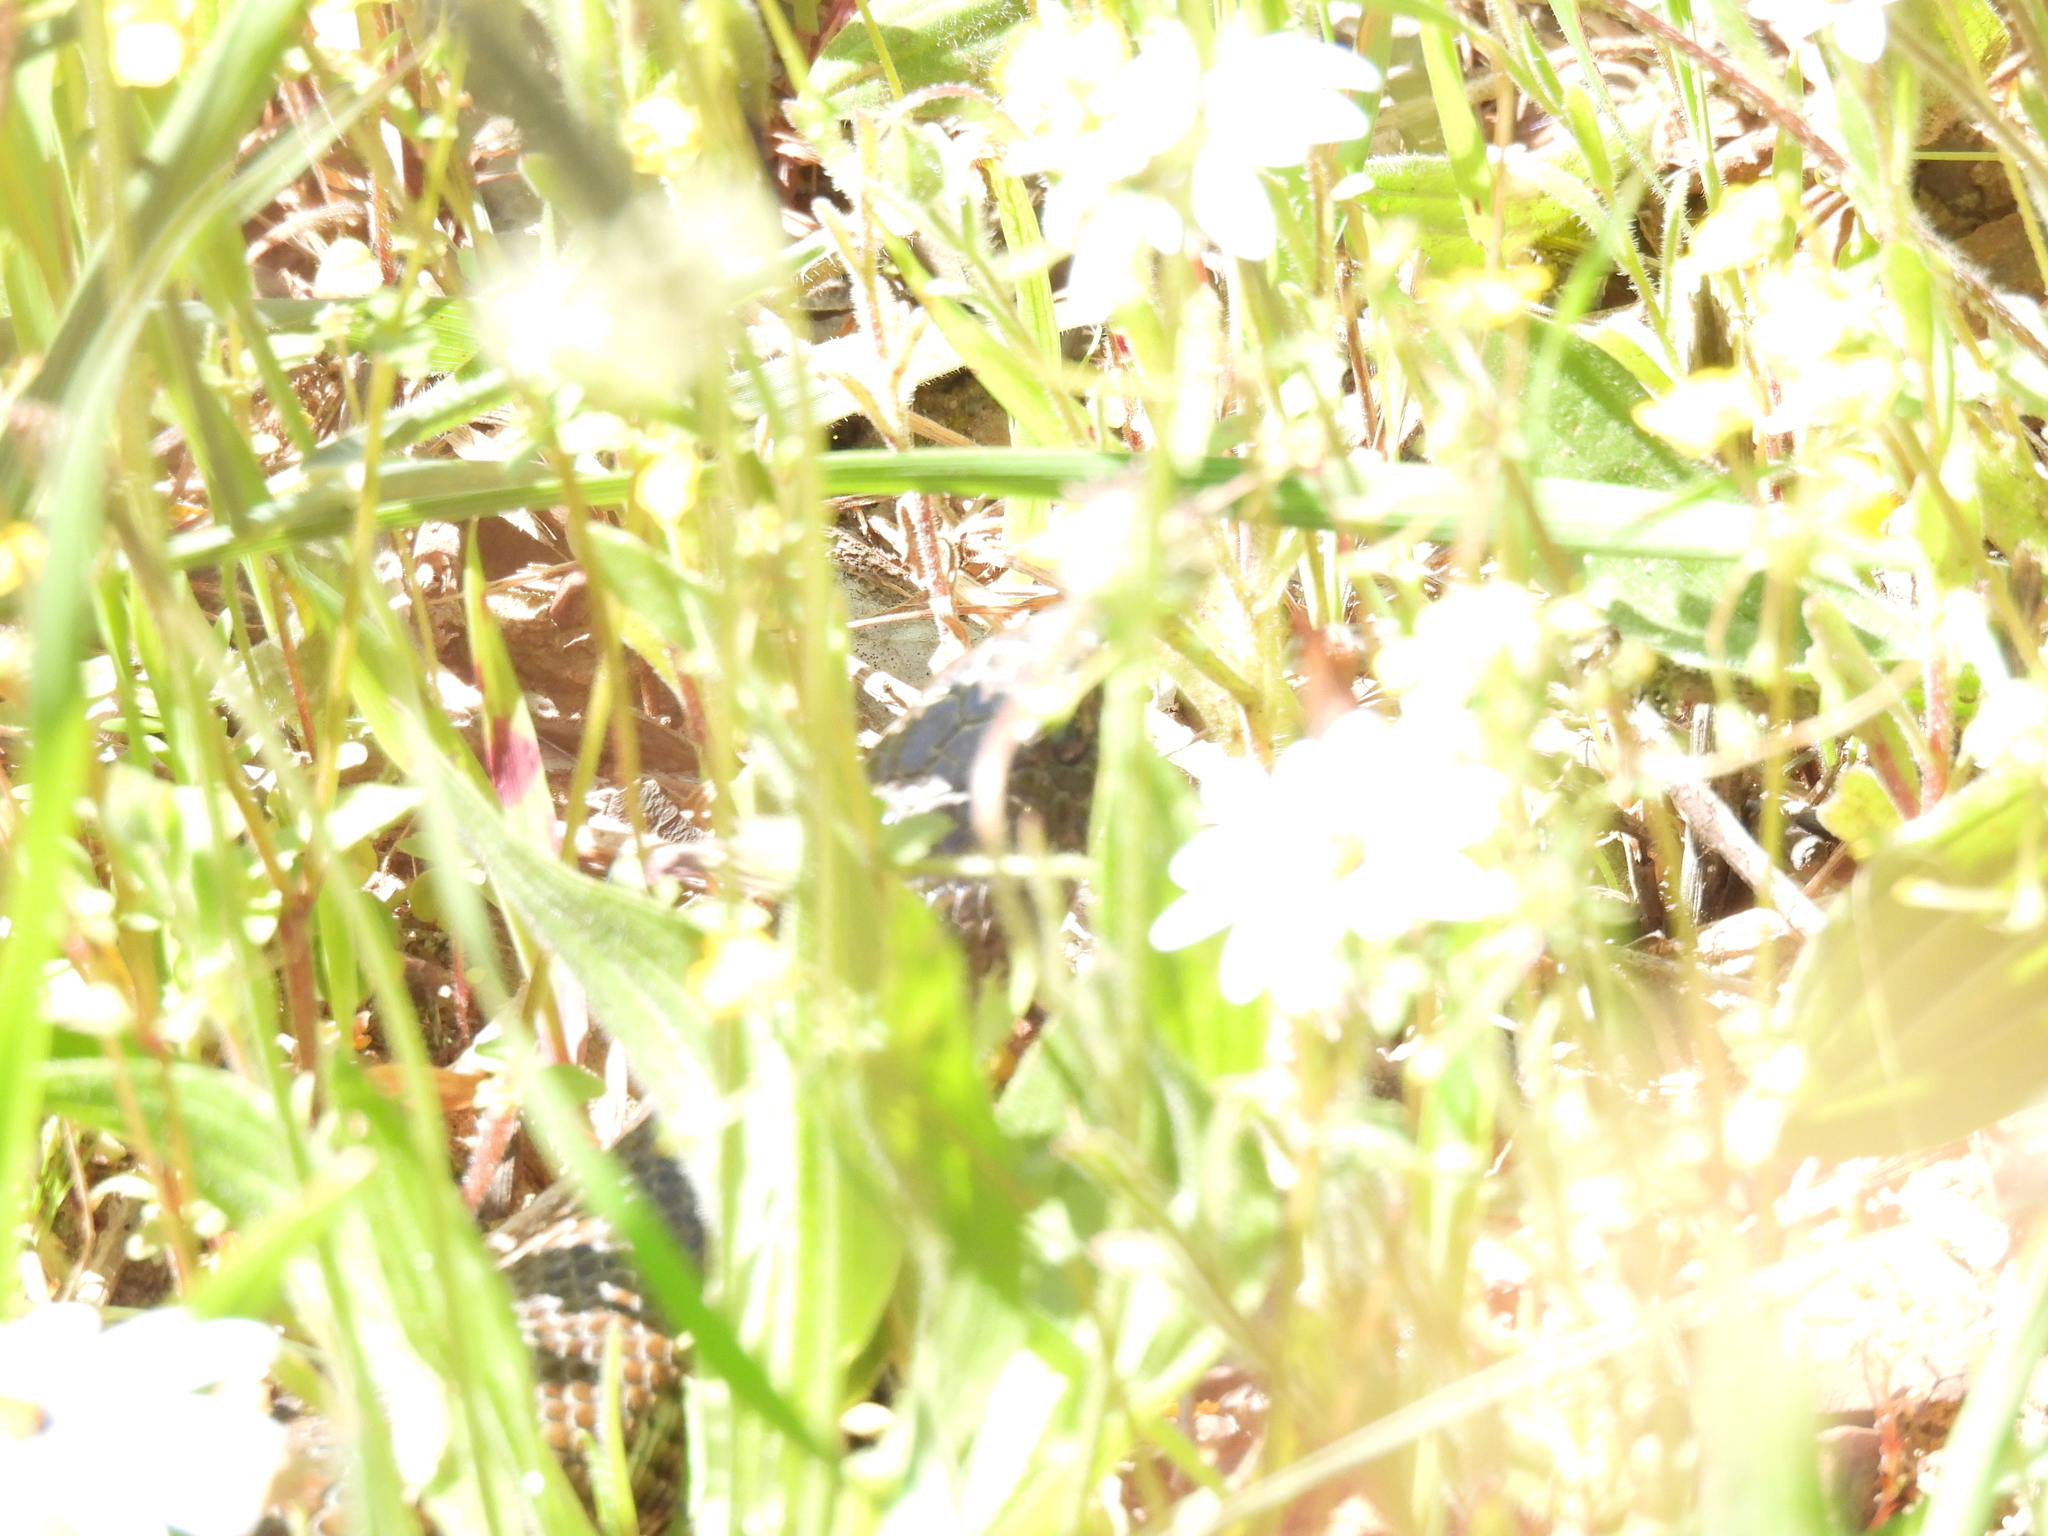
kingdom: Animalia
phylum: Chordata
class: Squamata
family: Pseudaspididae
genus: Pseudaspis
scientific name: Pseudaspis cana
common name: Mole snake
